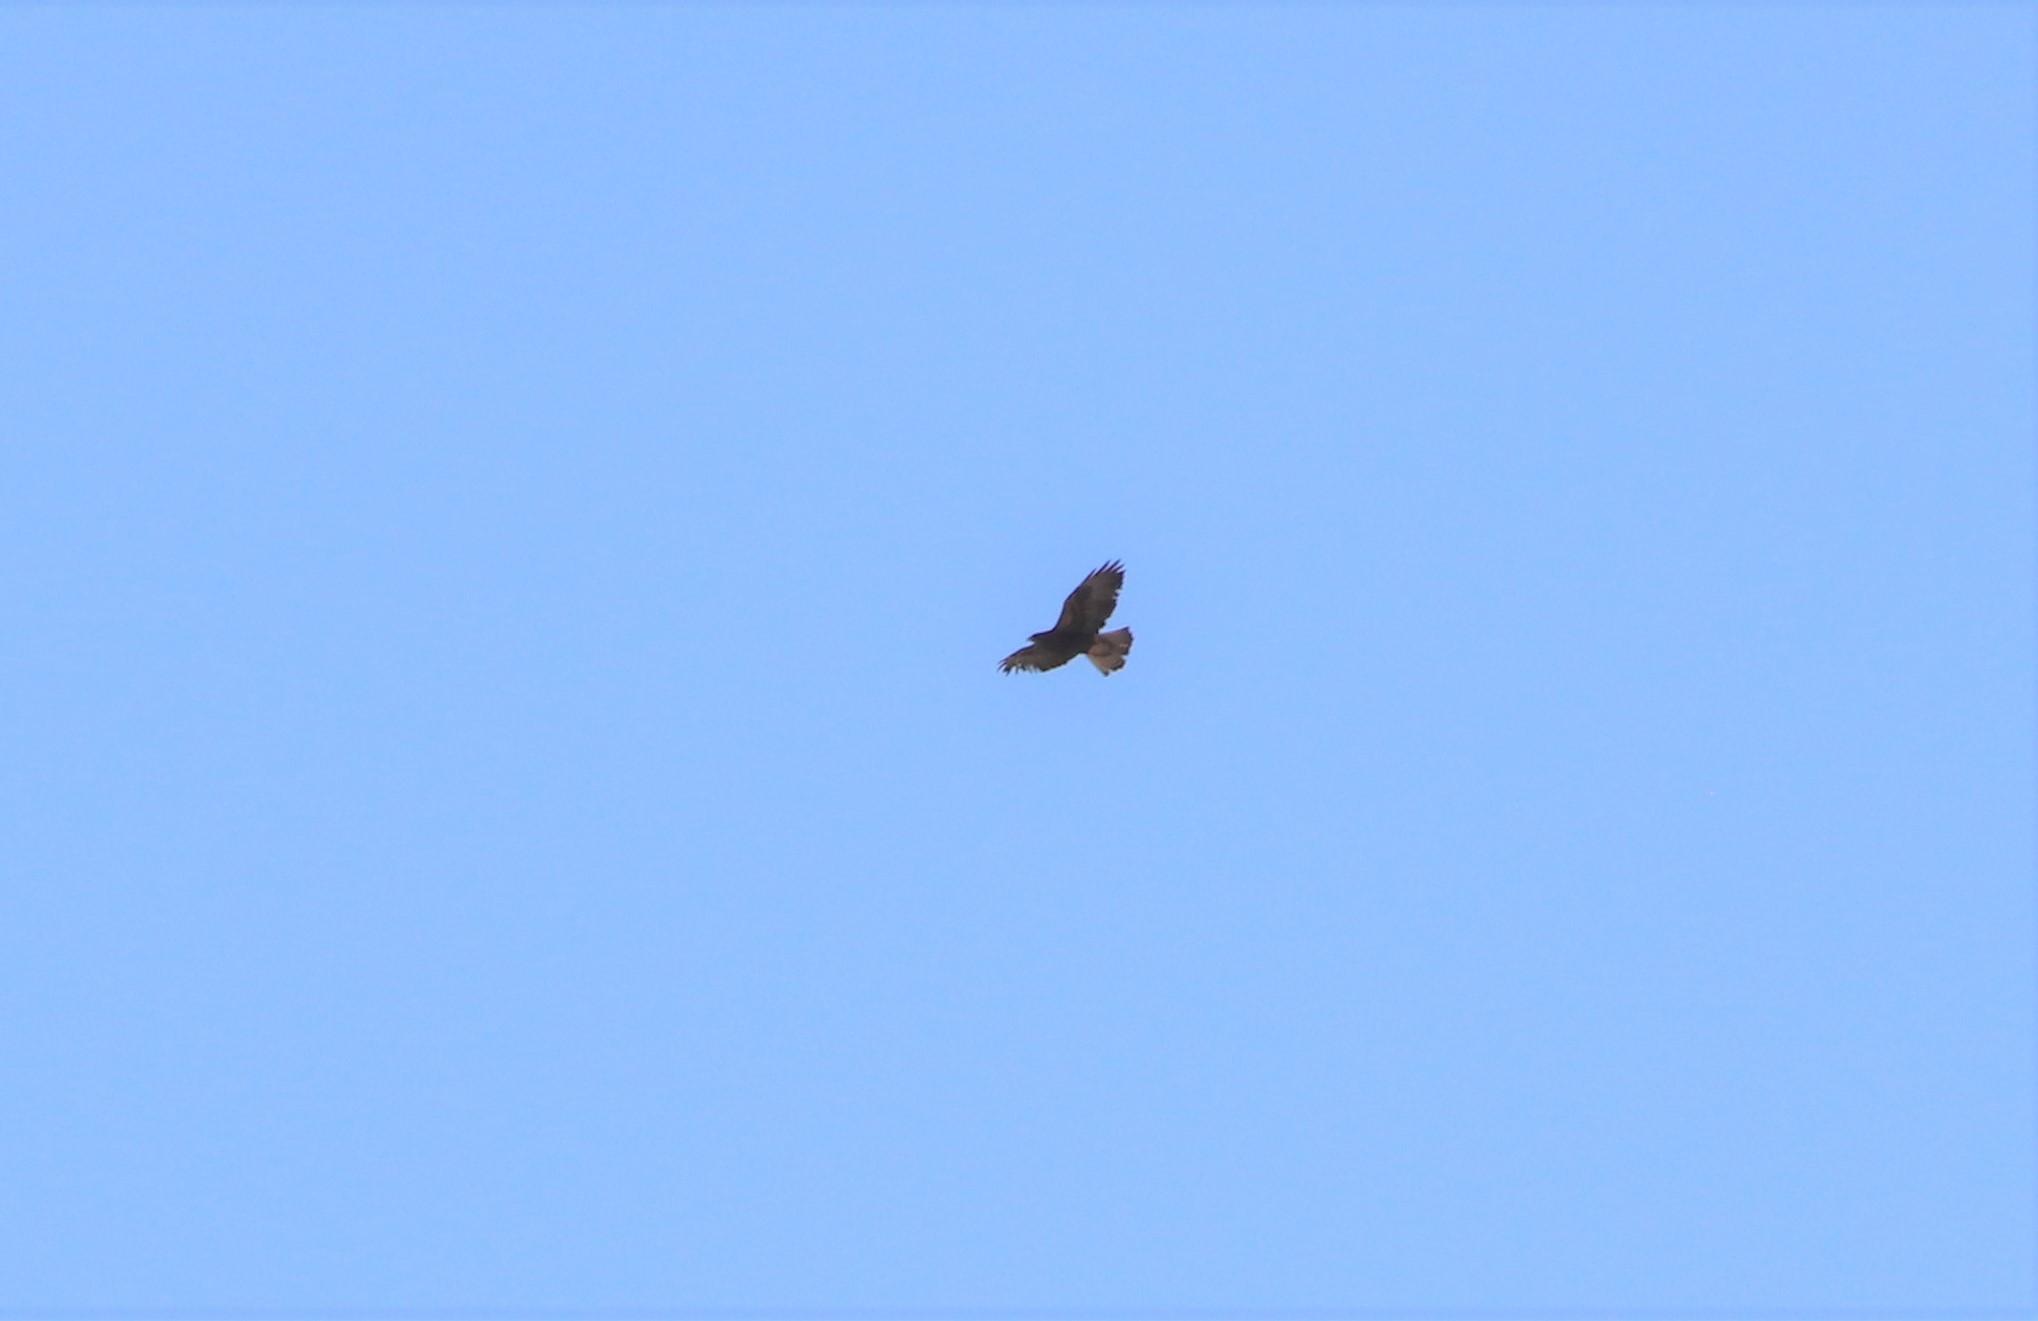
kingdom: Animalia
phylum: Chordata
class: Aves
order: Accipitriformes
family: Accipitridae
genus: Buteo
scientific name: Buteo jamaicensis
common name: Red-tailed hawk
